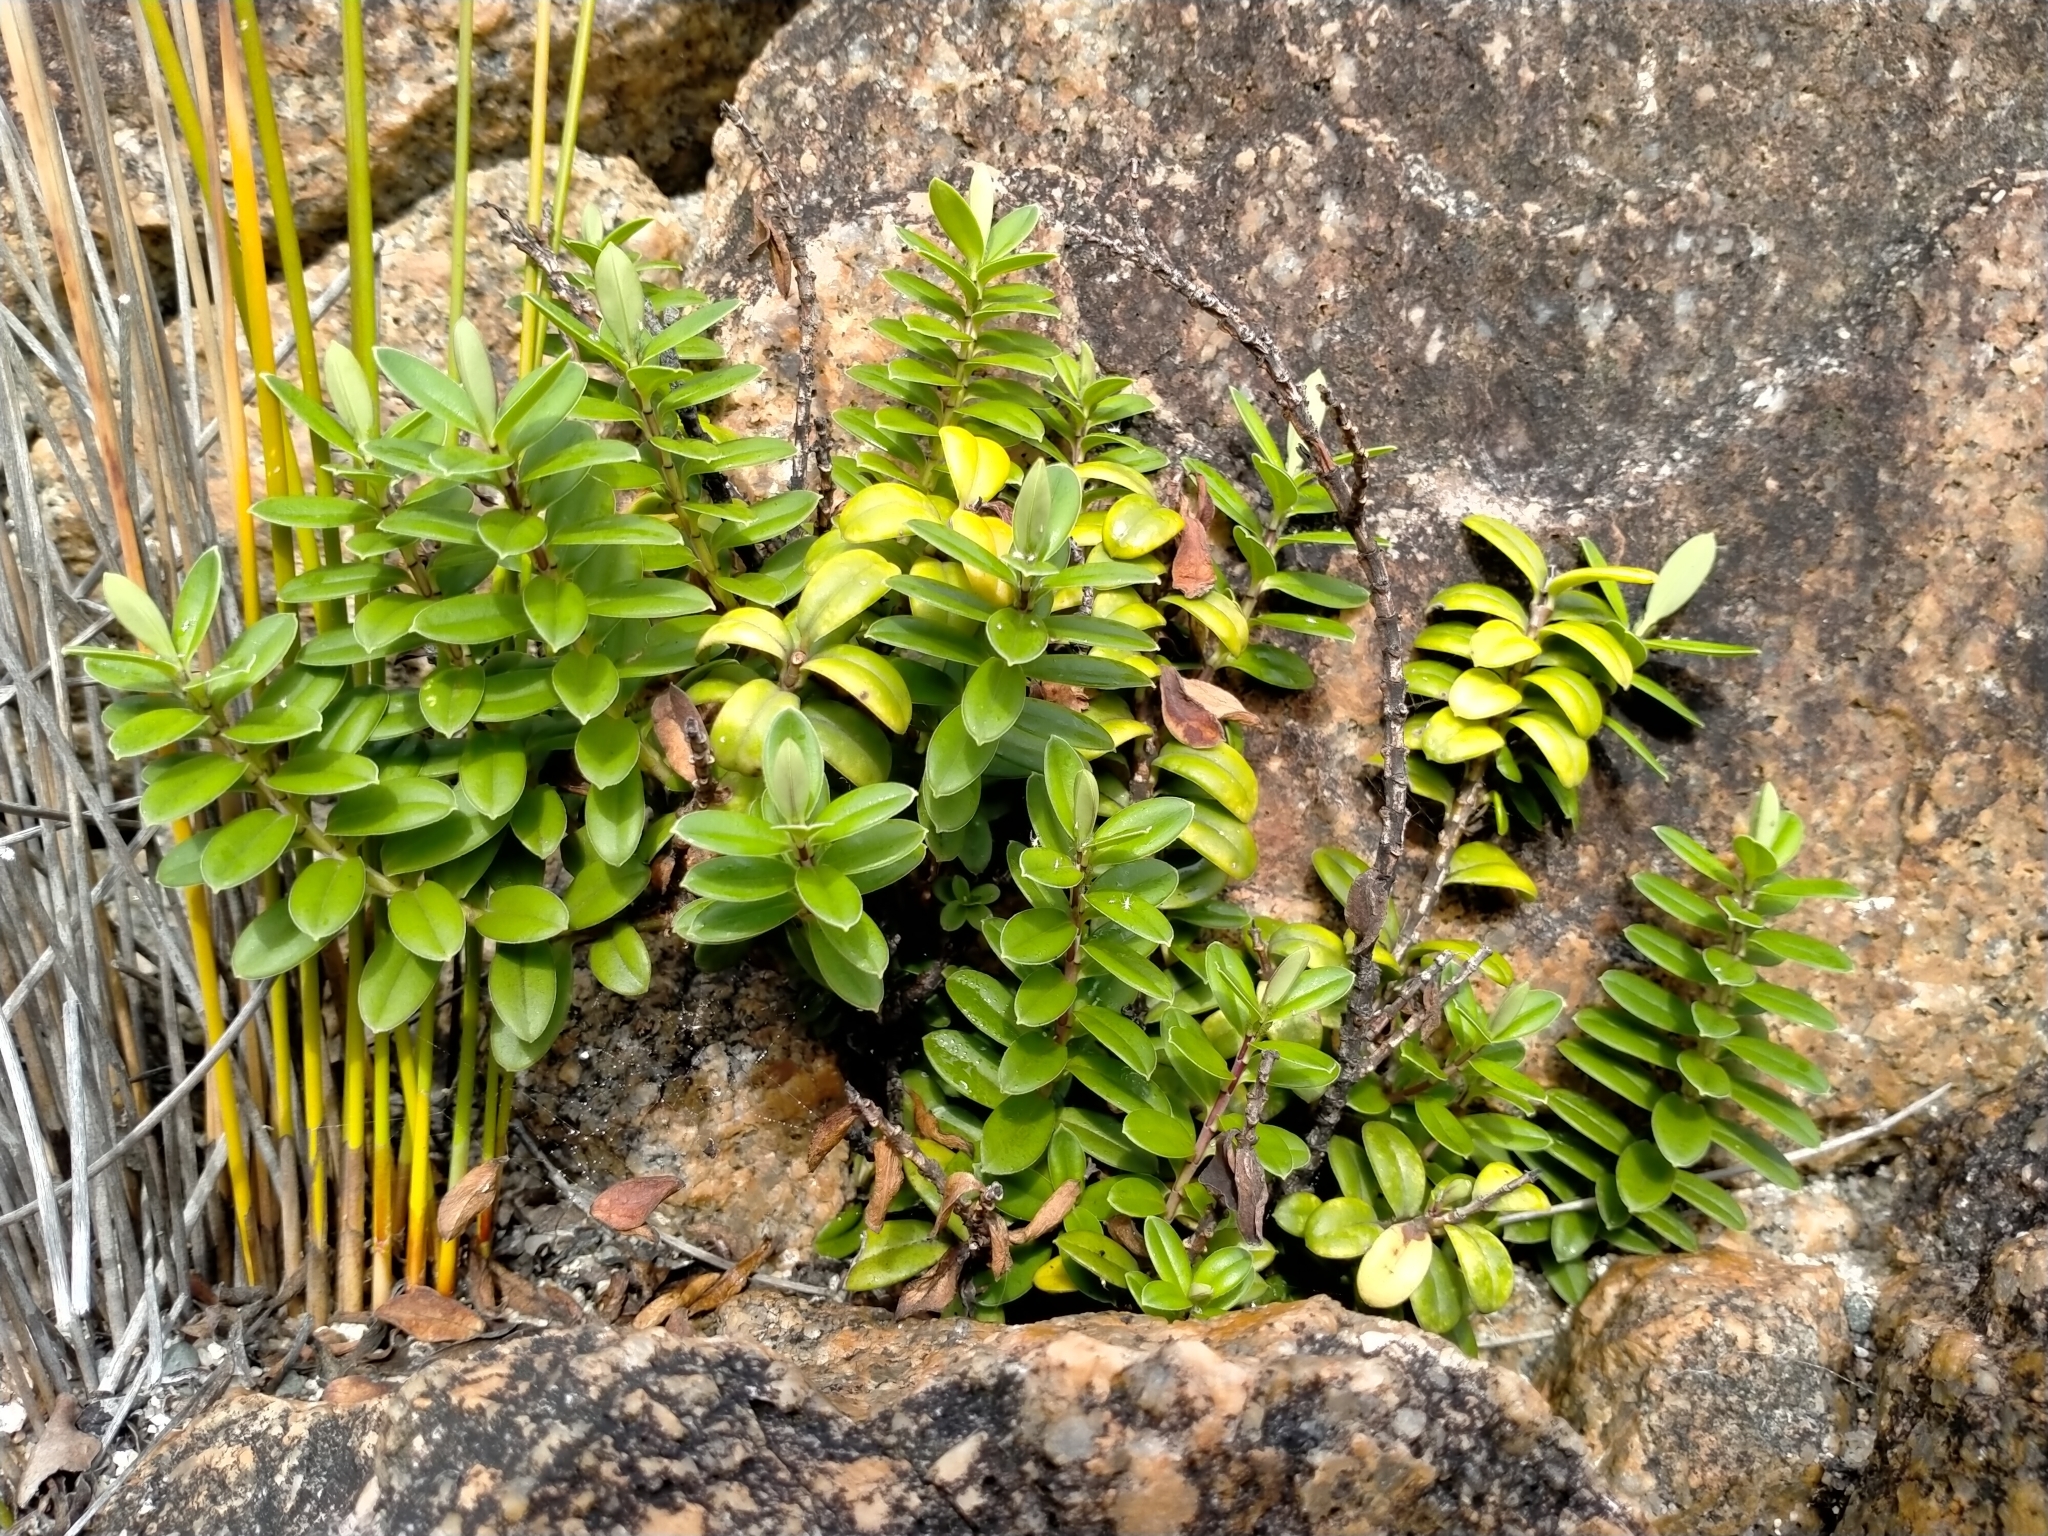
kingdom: Plantae
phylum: Tracheophyta
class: Magnoliopsida
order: Lamiales
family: Plantaginaceae
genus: Veronica
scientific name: Veronica elliptica
